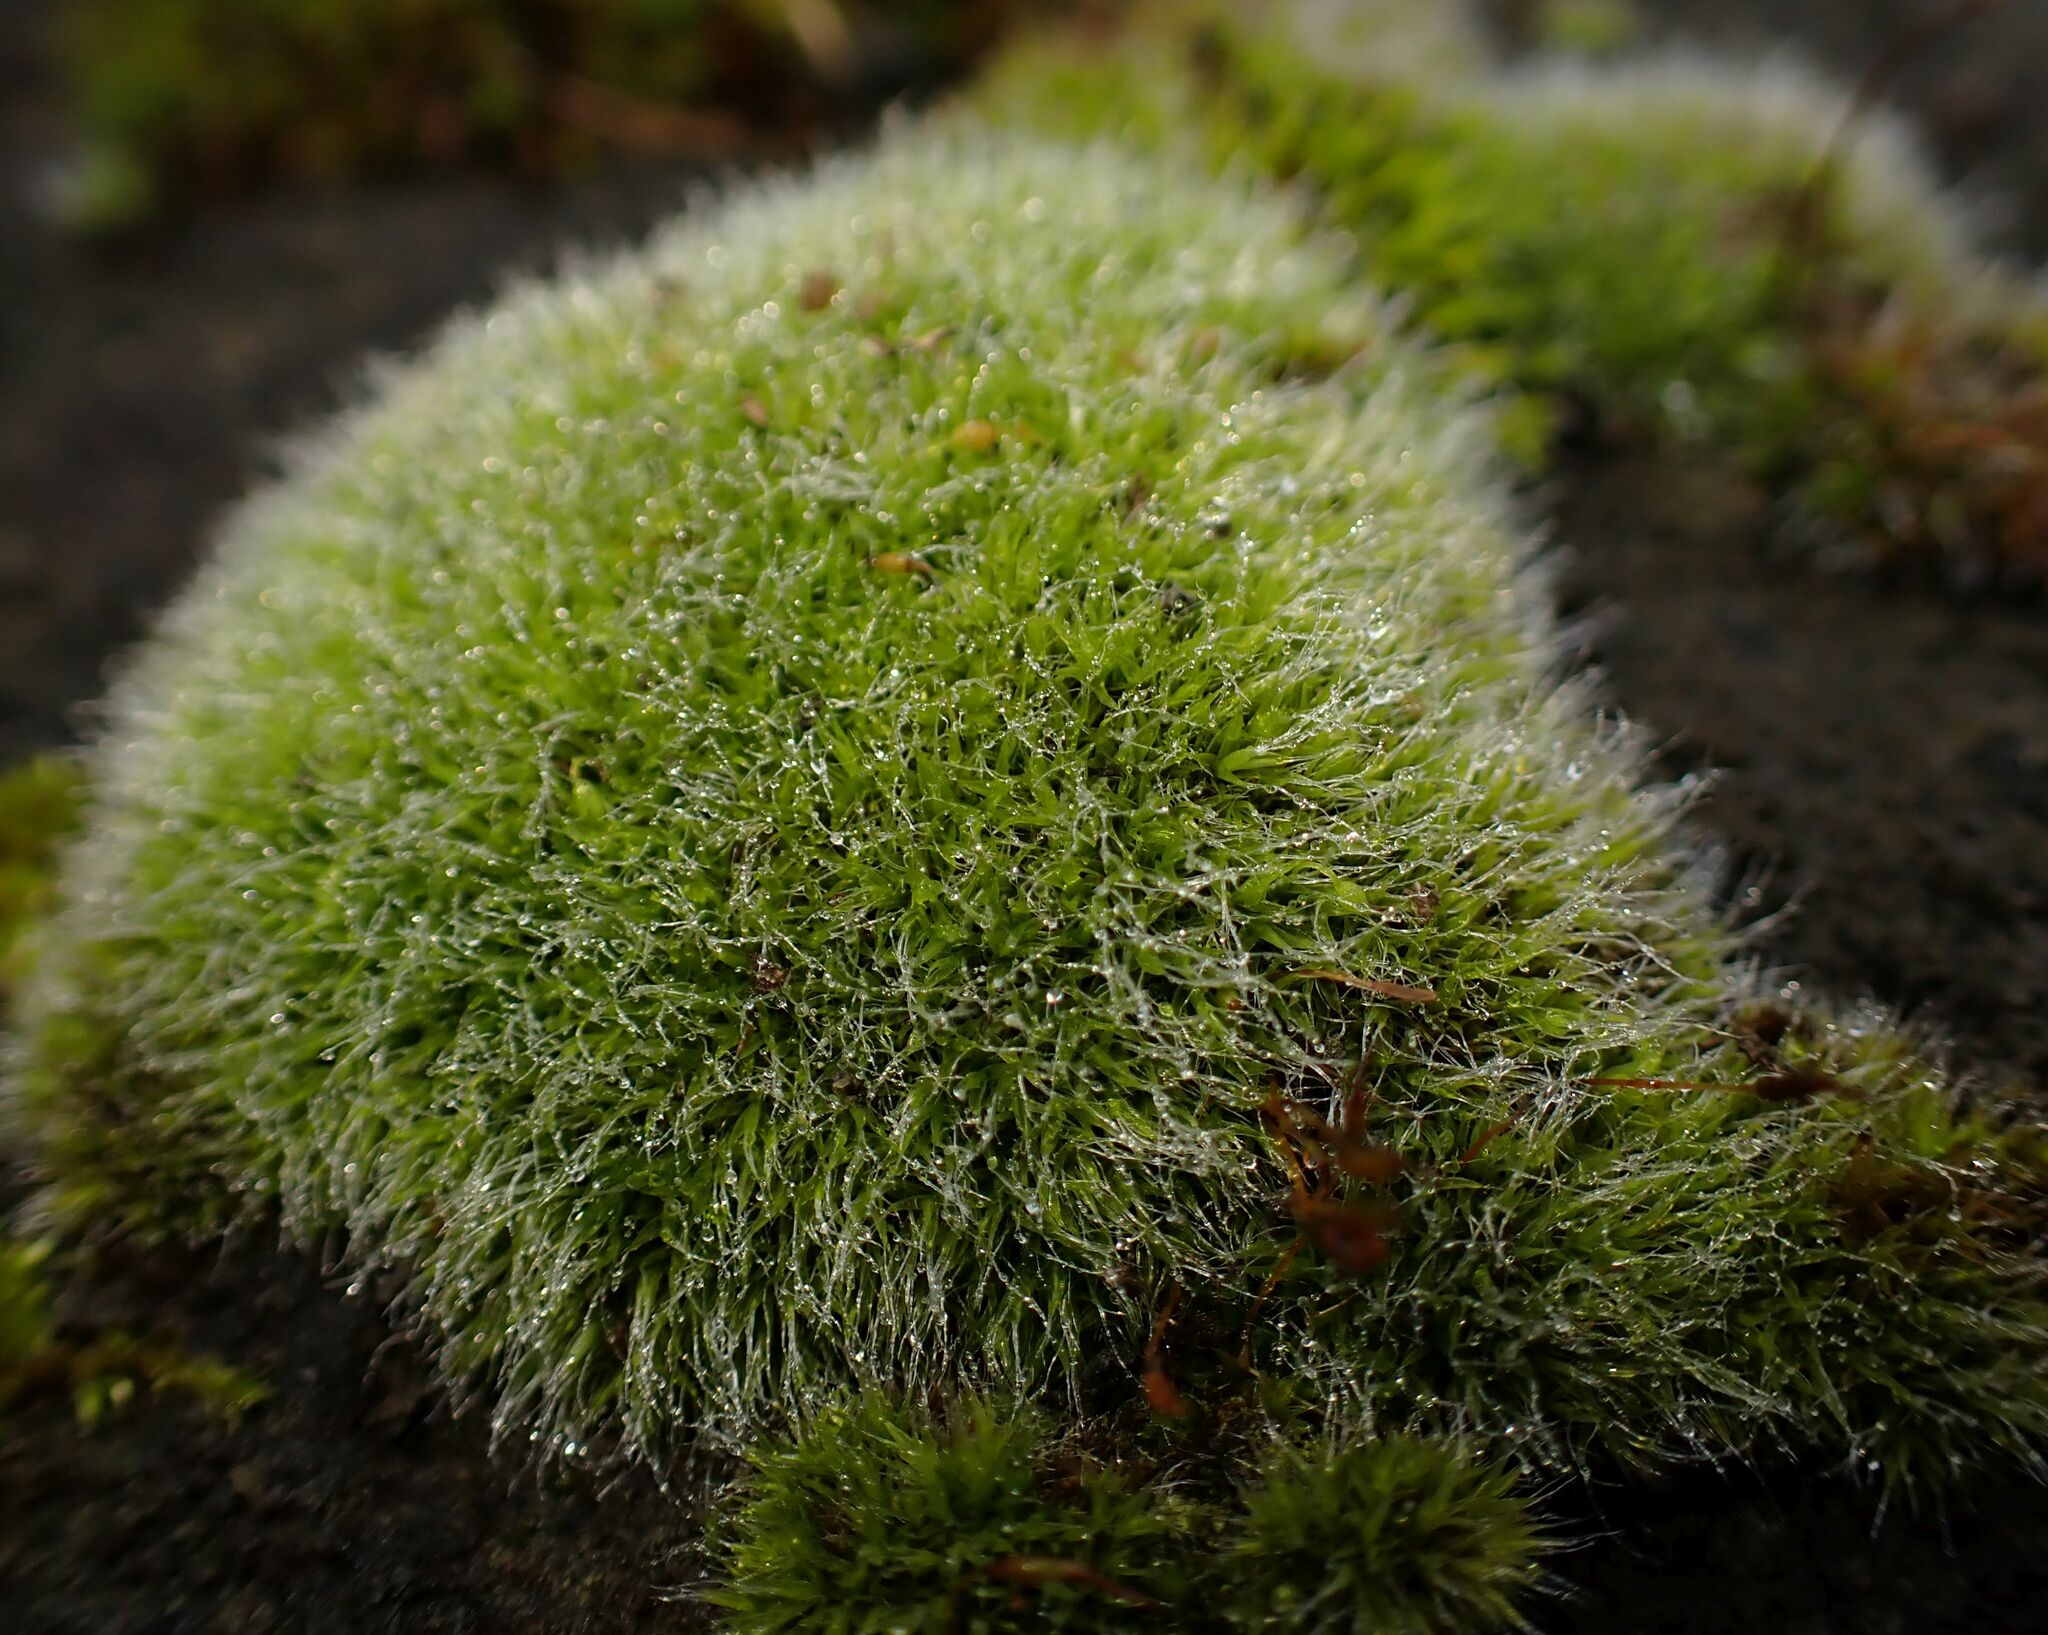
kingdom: Plantae
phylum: Bryophyta
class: Bryopsida
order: Grimmiales
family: Grimmiaceae
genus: Grimmia
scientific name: Grimmia pulvinata
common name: Grey-cushioned grimmia
